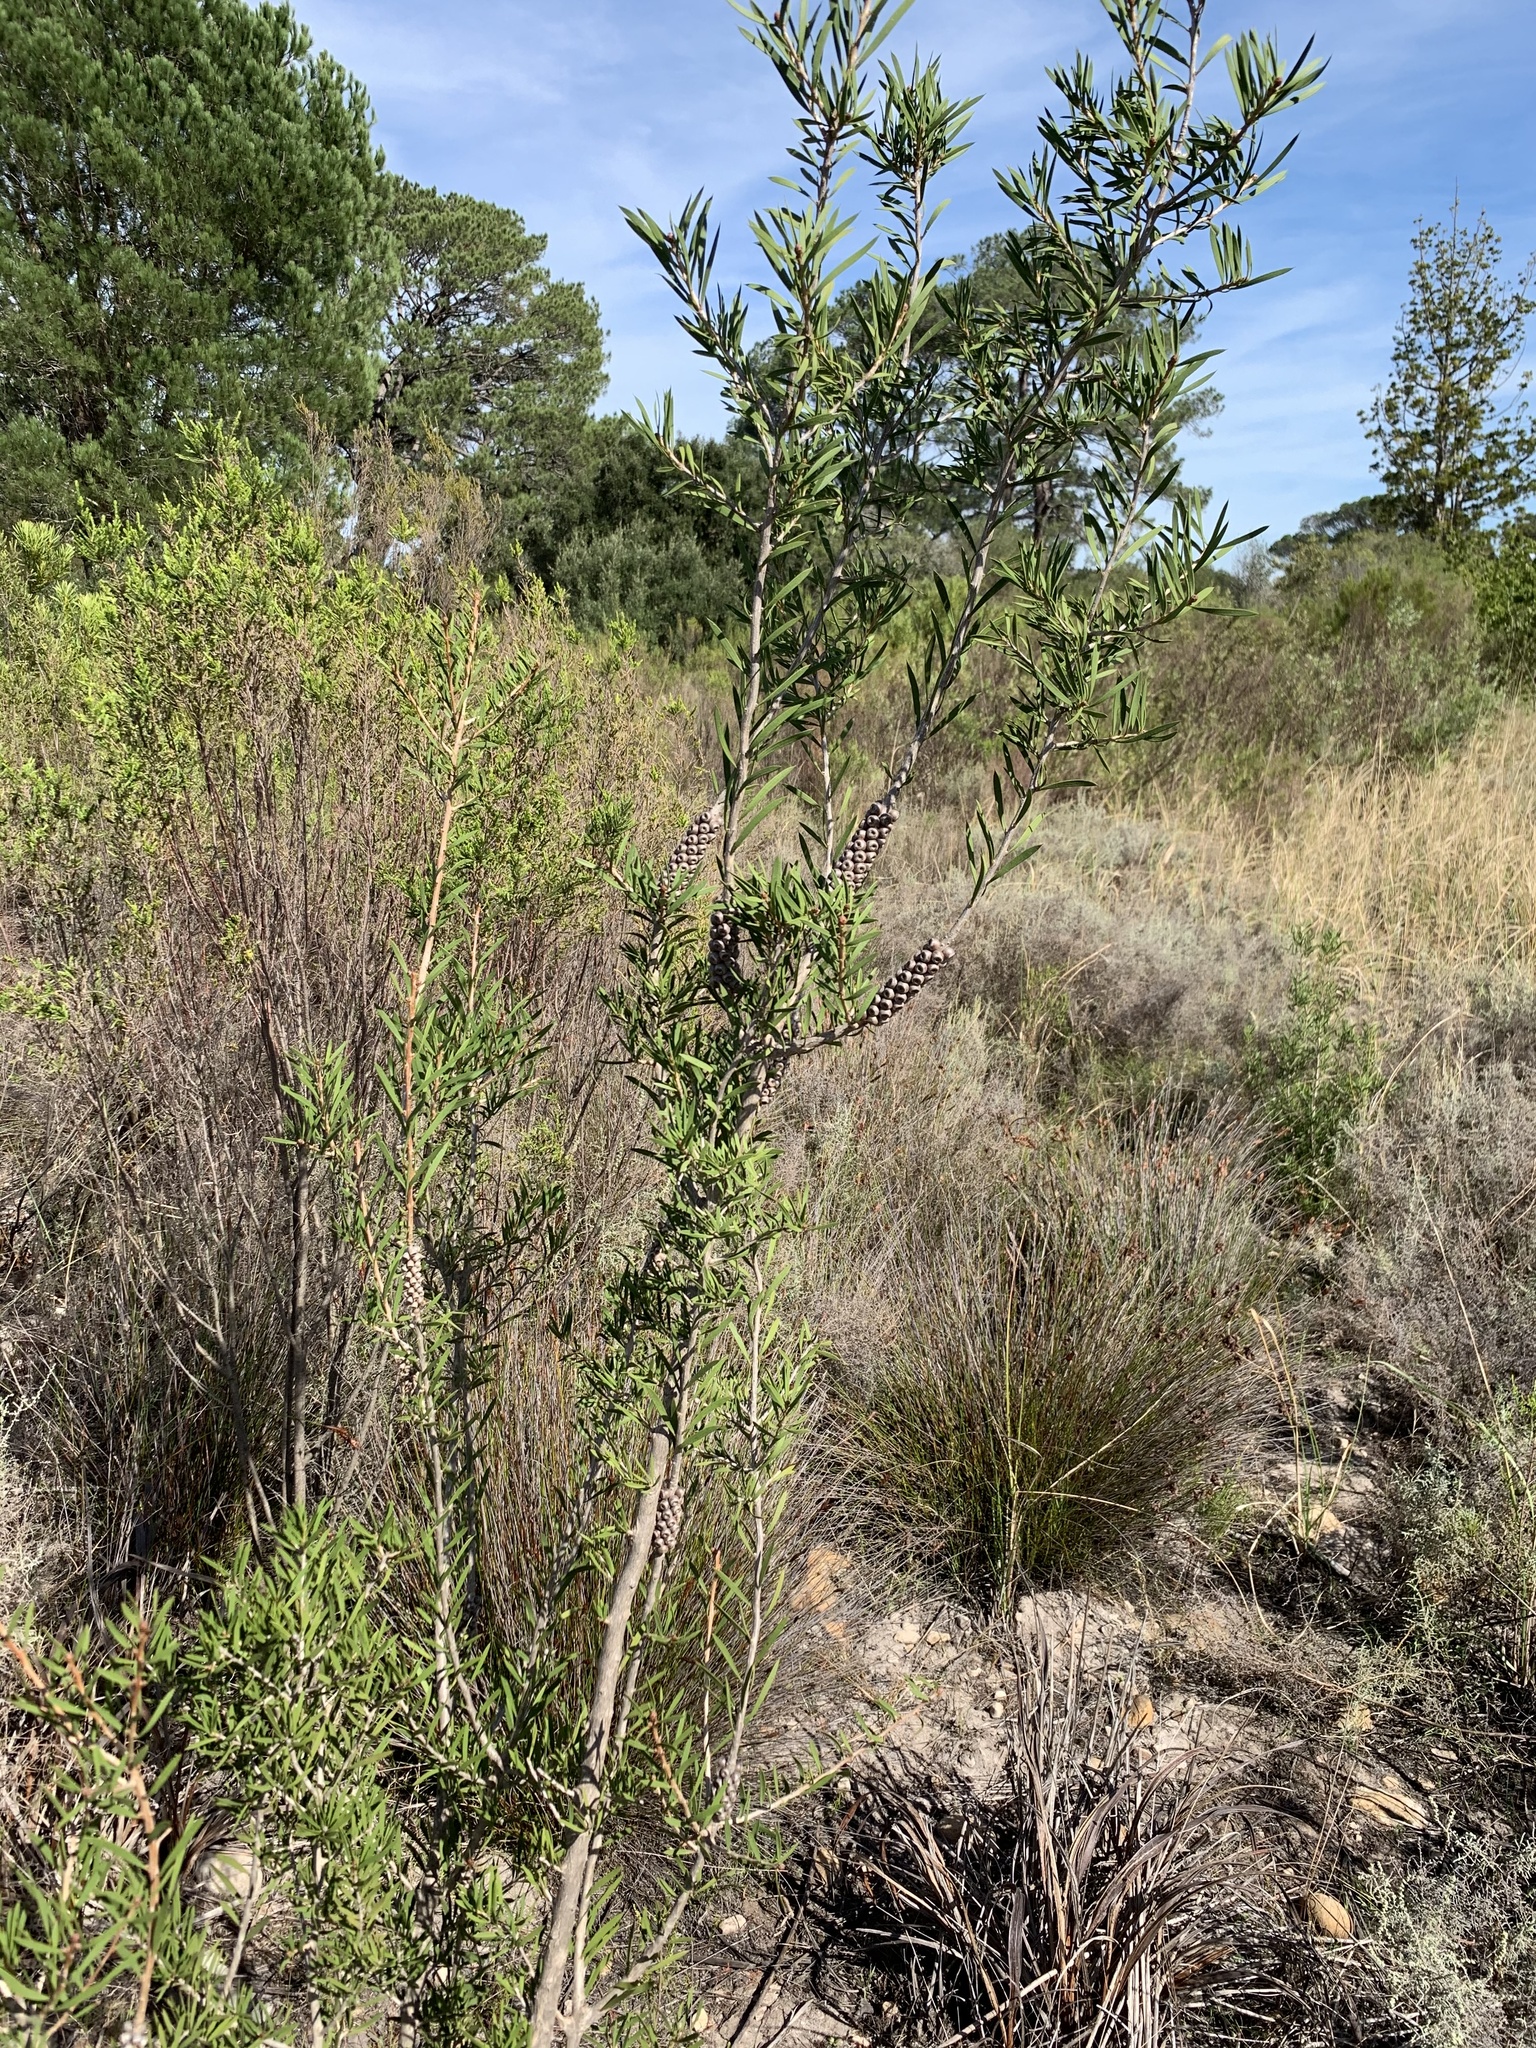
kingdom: Plantae
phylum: Tracheophyta
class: Magnoliopsida
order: Myrtales
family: Myrtaceae
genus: Callistemon
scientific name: Callistemon rugulosus
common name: Scarlet bottlebrush
